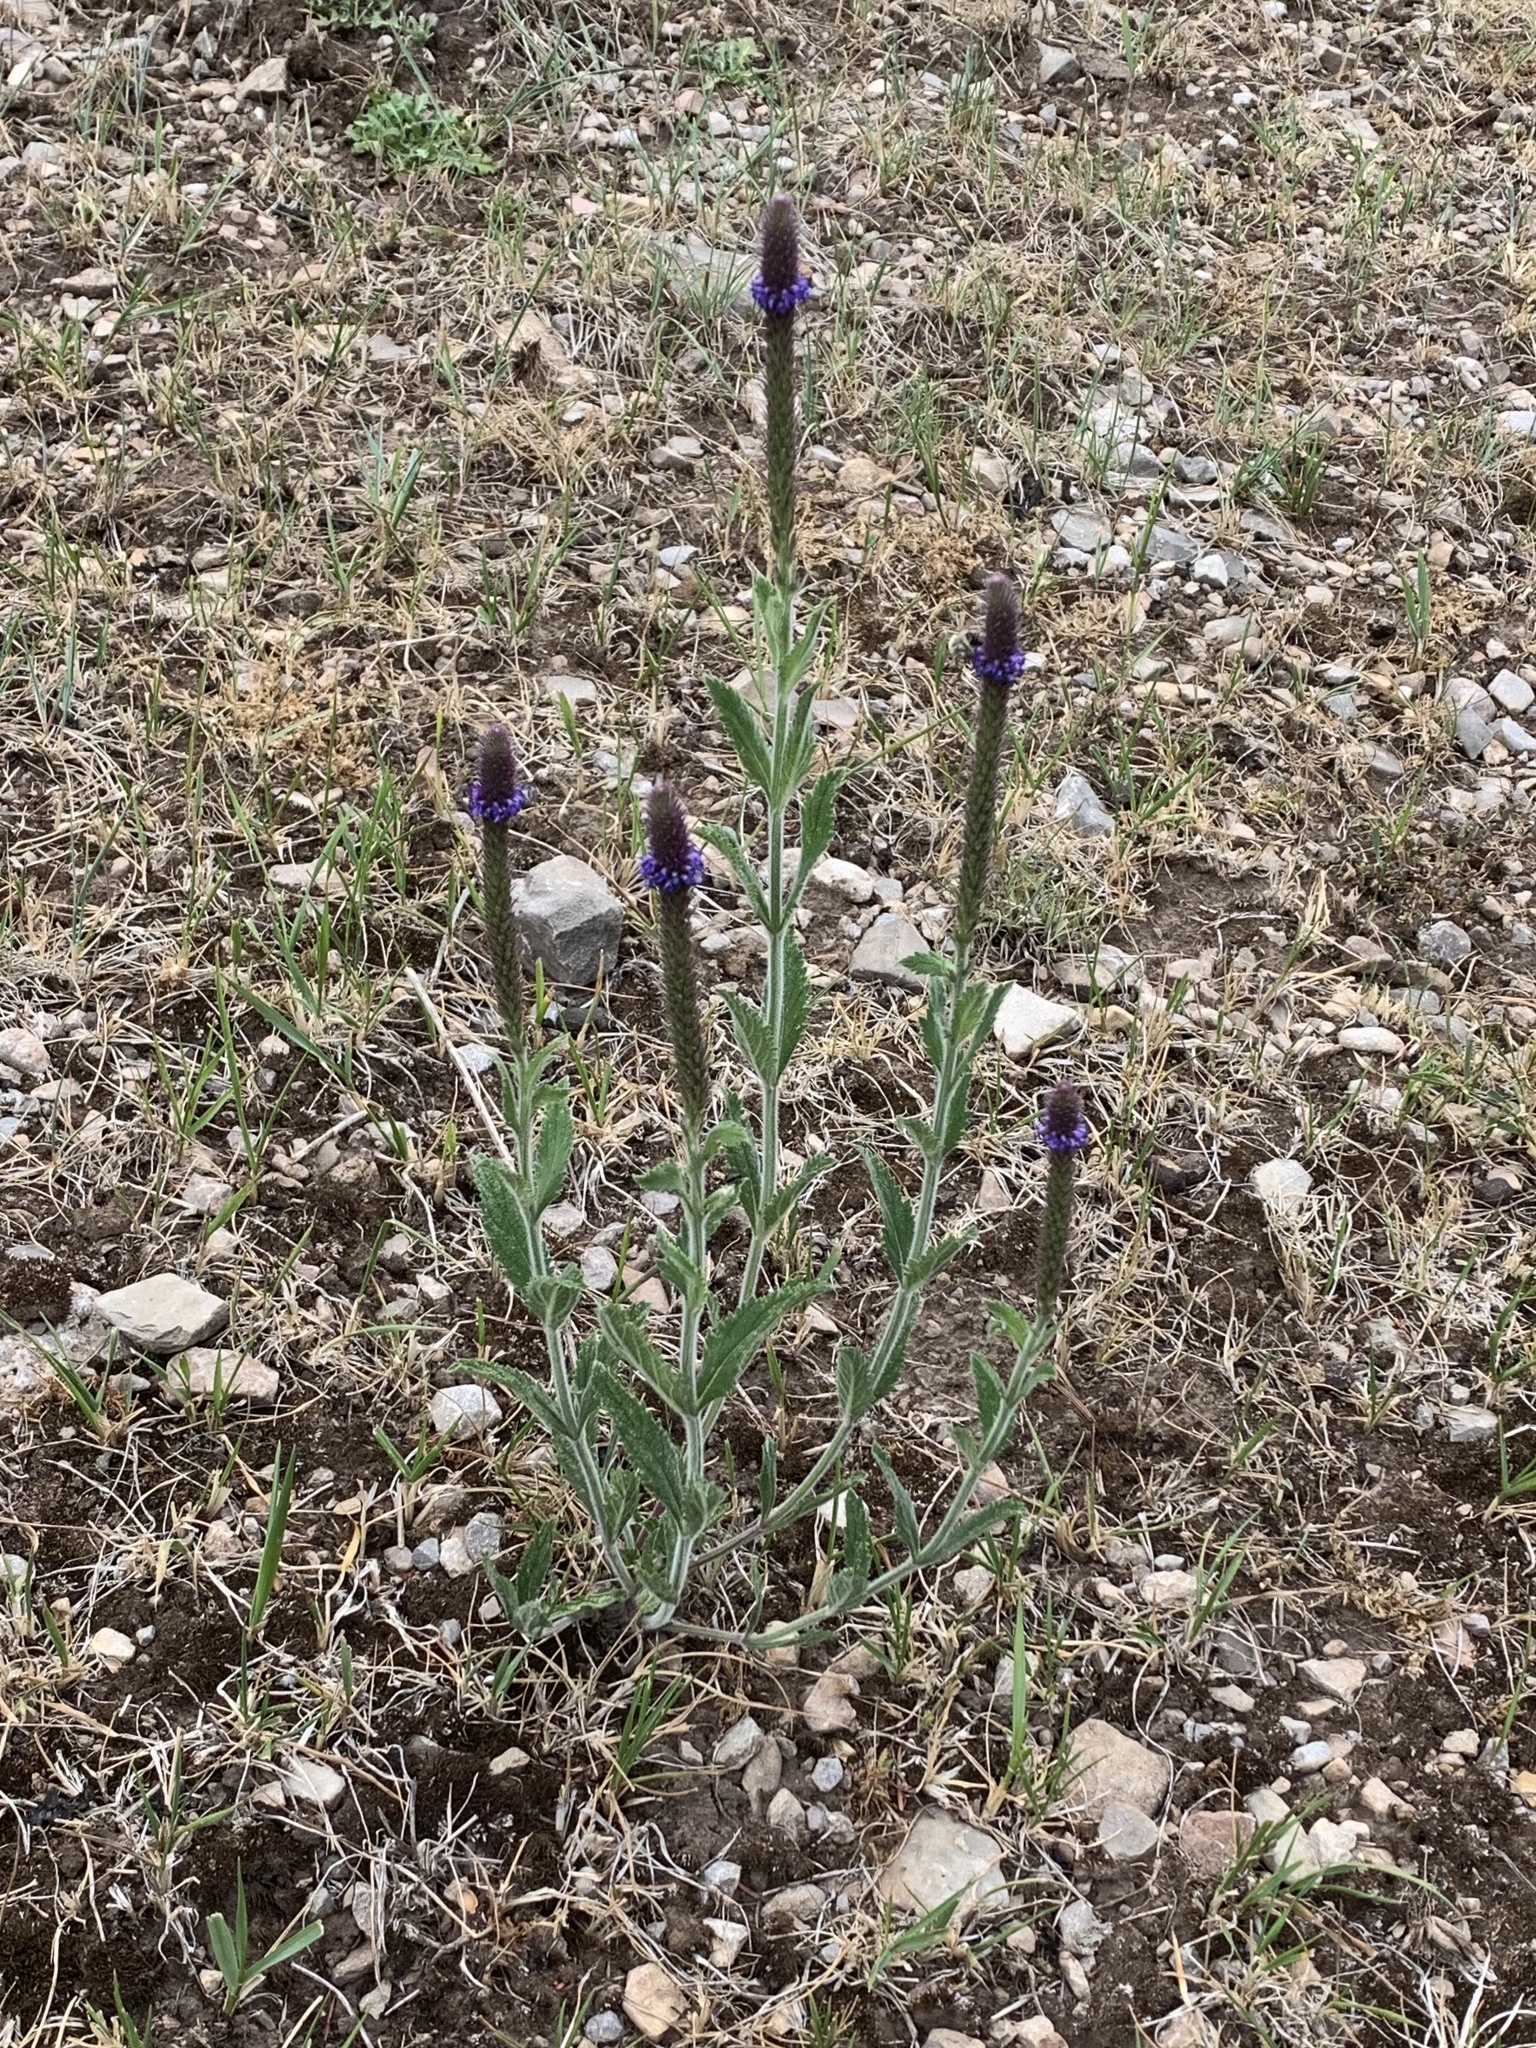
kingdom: Plantae
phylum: Tracheophyta
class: Magnoliopsida
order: Lamiales
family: Verbenaceae
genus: Verbena
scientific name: Verbena macdougalii
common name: New mexico vervain
